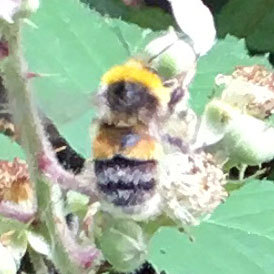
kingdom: Animalia
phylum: Arthropoda
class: Insecta
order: Hymenoptera
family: Apidae
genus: Bombus
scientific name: Bombus lucorum
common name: White-tailed bumblebee
